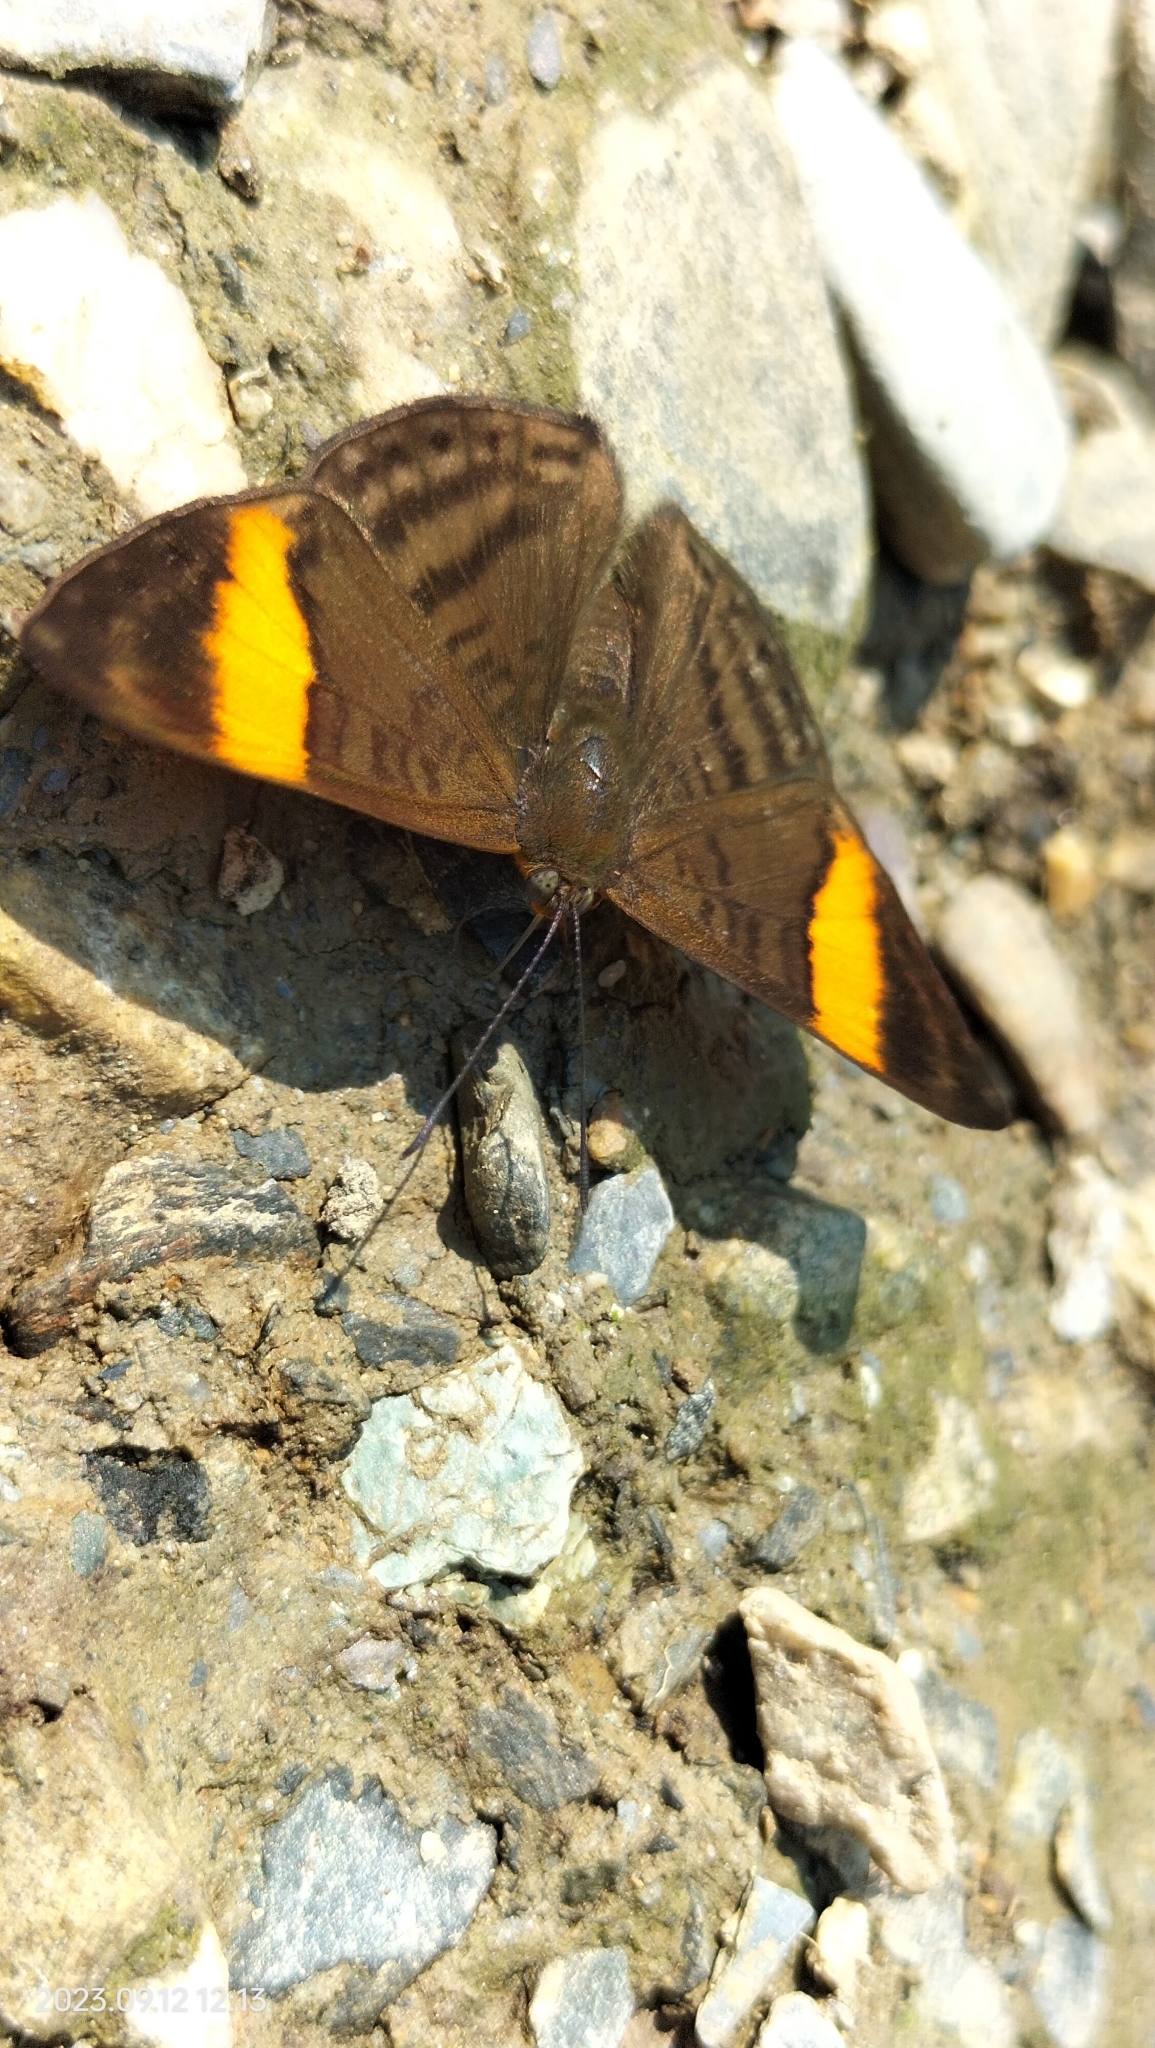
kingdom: Animalia
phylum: Arthropoda
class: Insecta
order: Lepidoptera
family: Lycaenidae
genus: Emesis
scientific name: Emesis cypria
